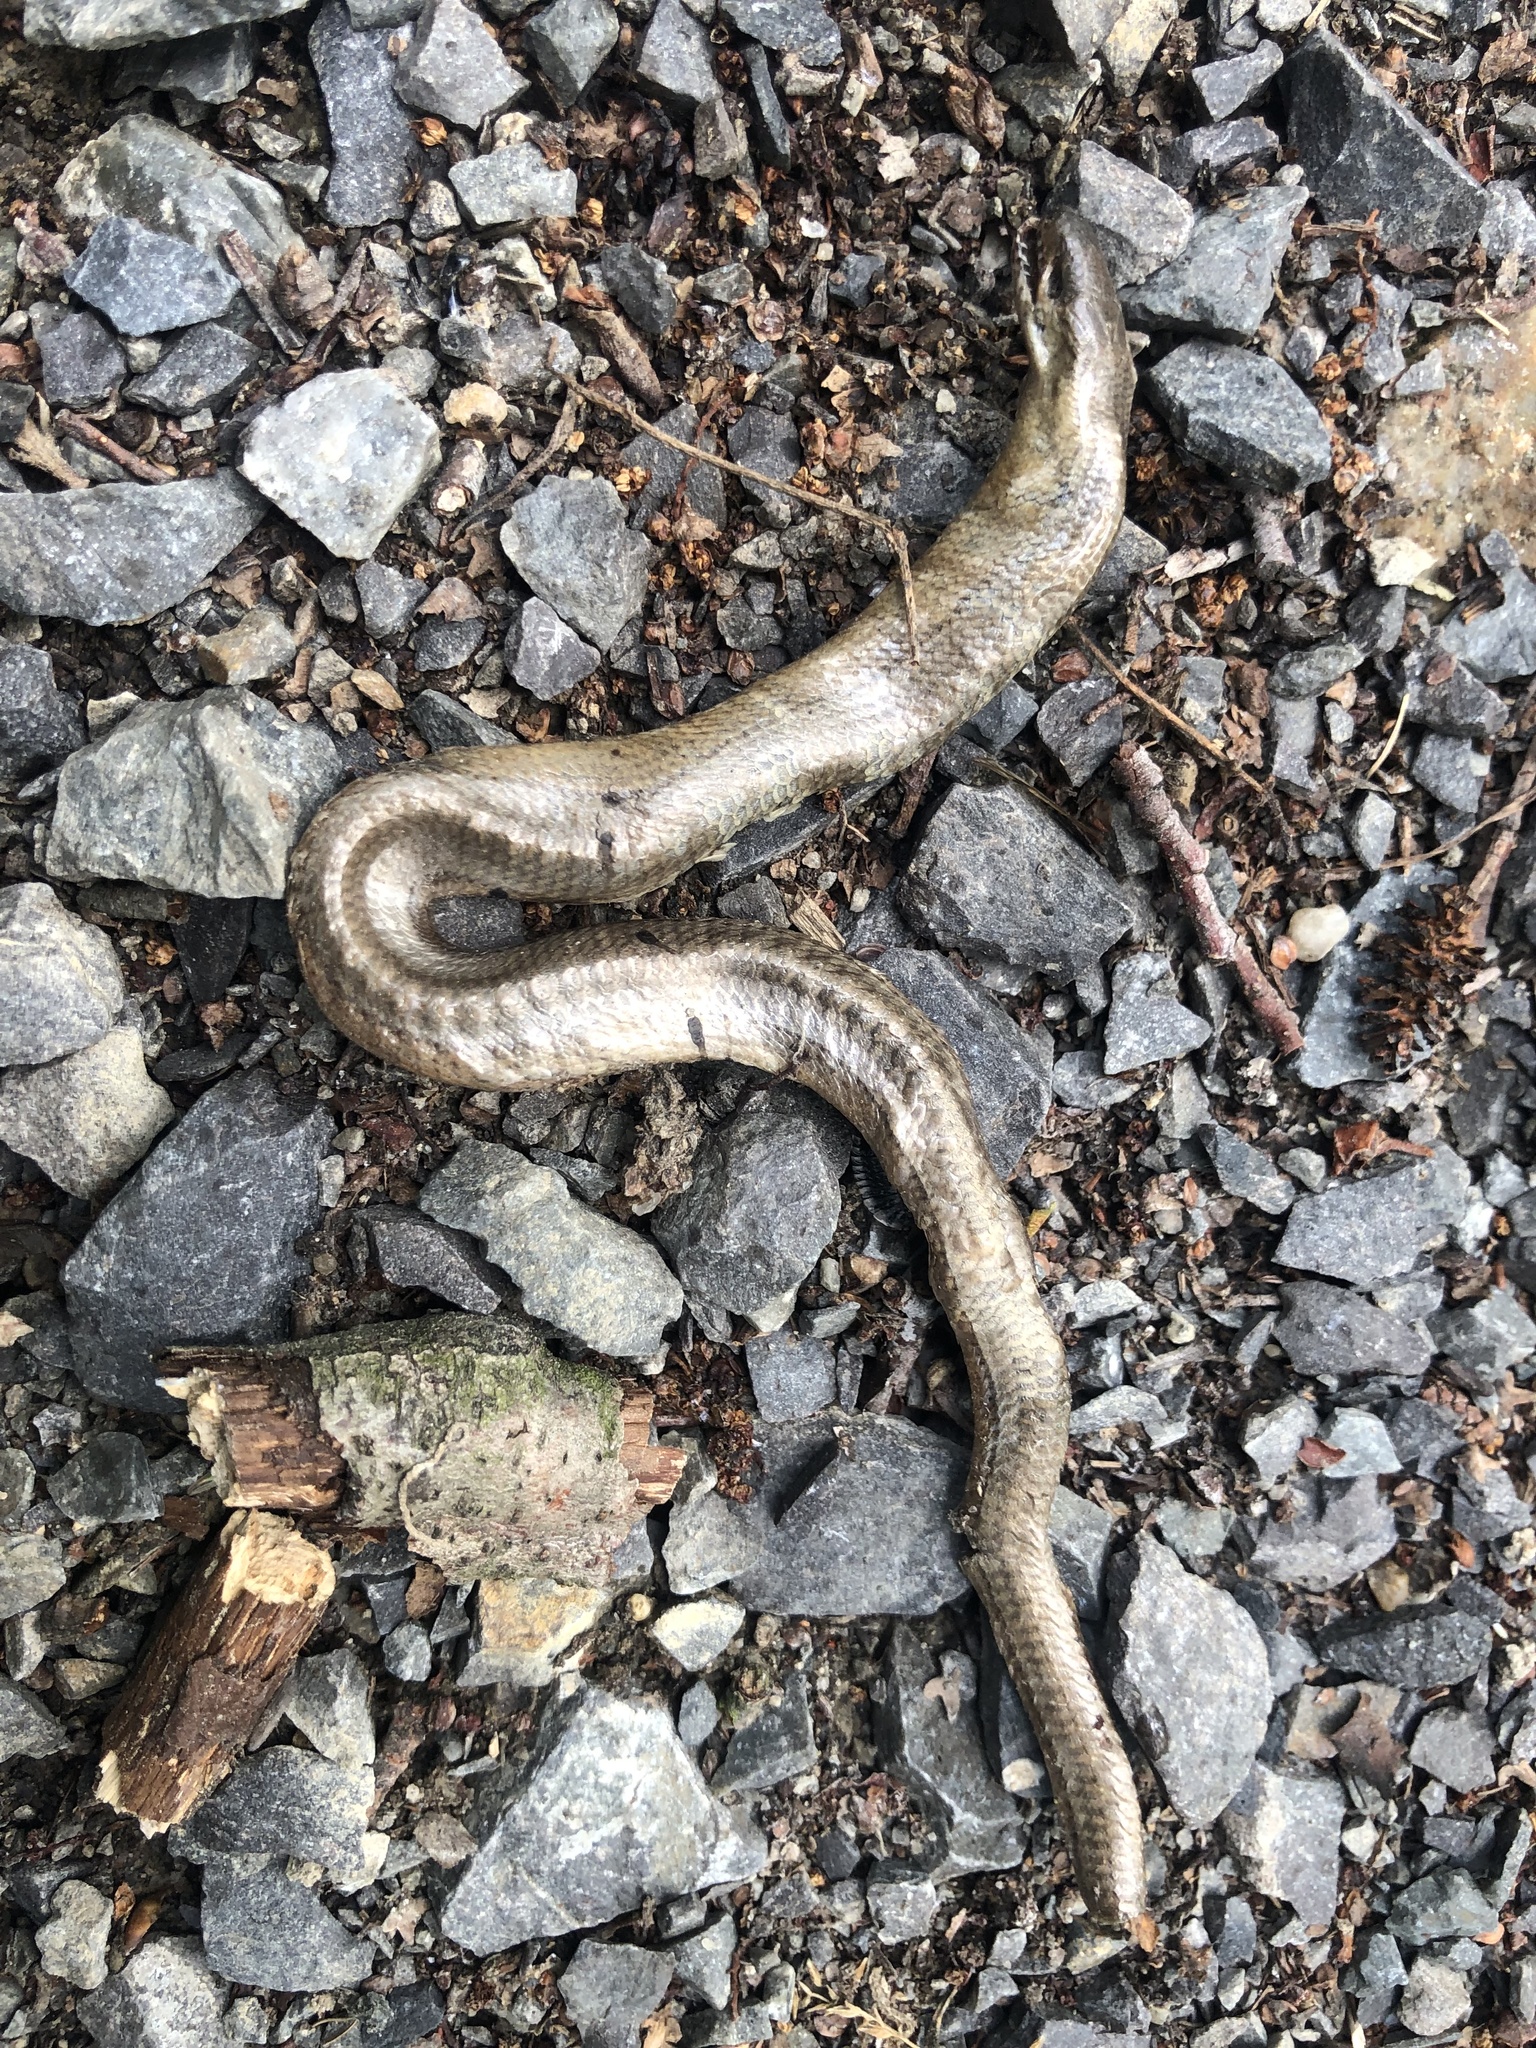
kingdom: Animalia
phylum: Chordata
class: Squamata
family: Anguidae
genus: Anguis
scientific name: Anguis fragilis
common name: Slow worm
